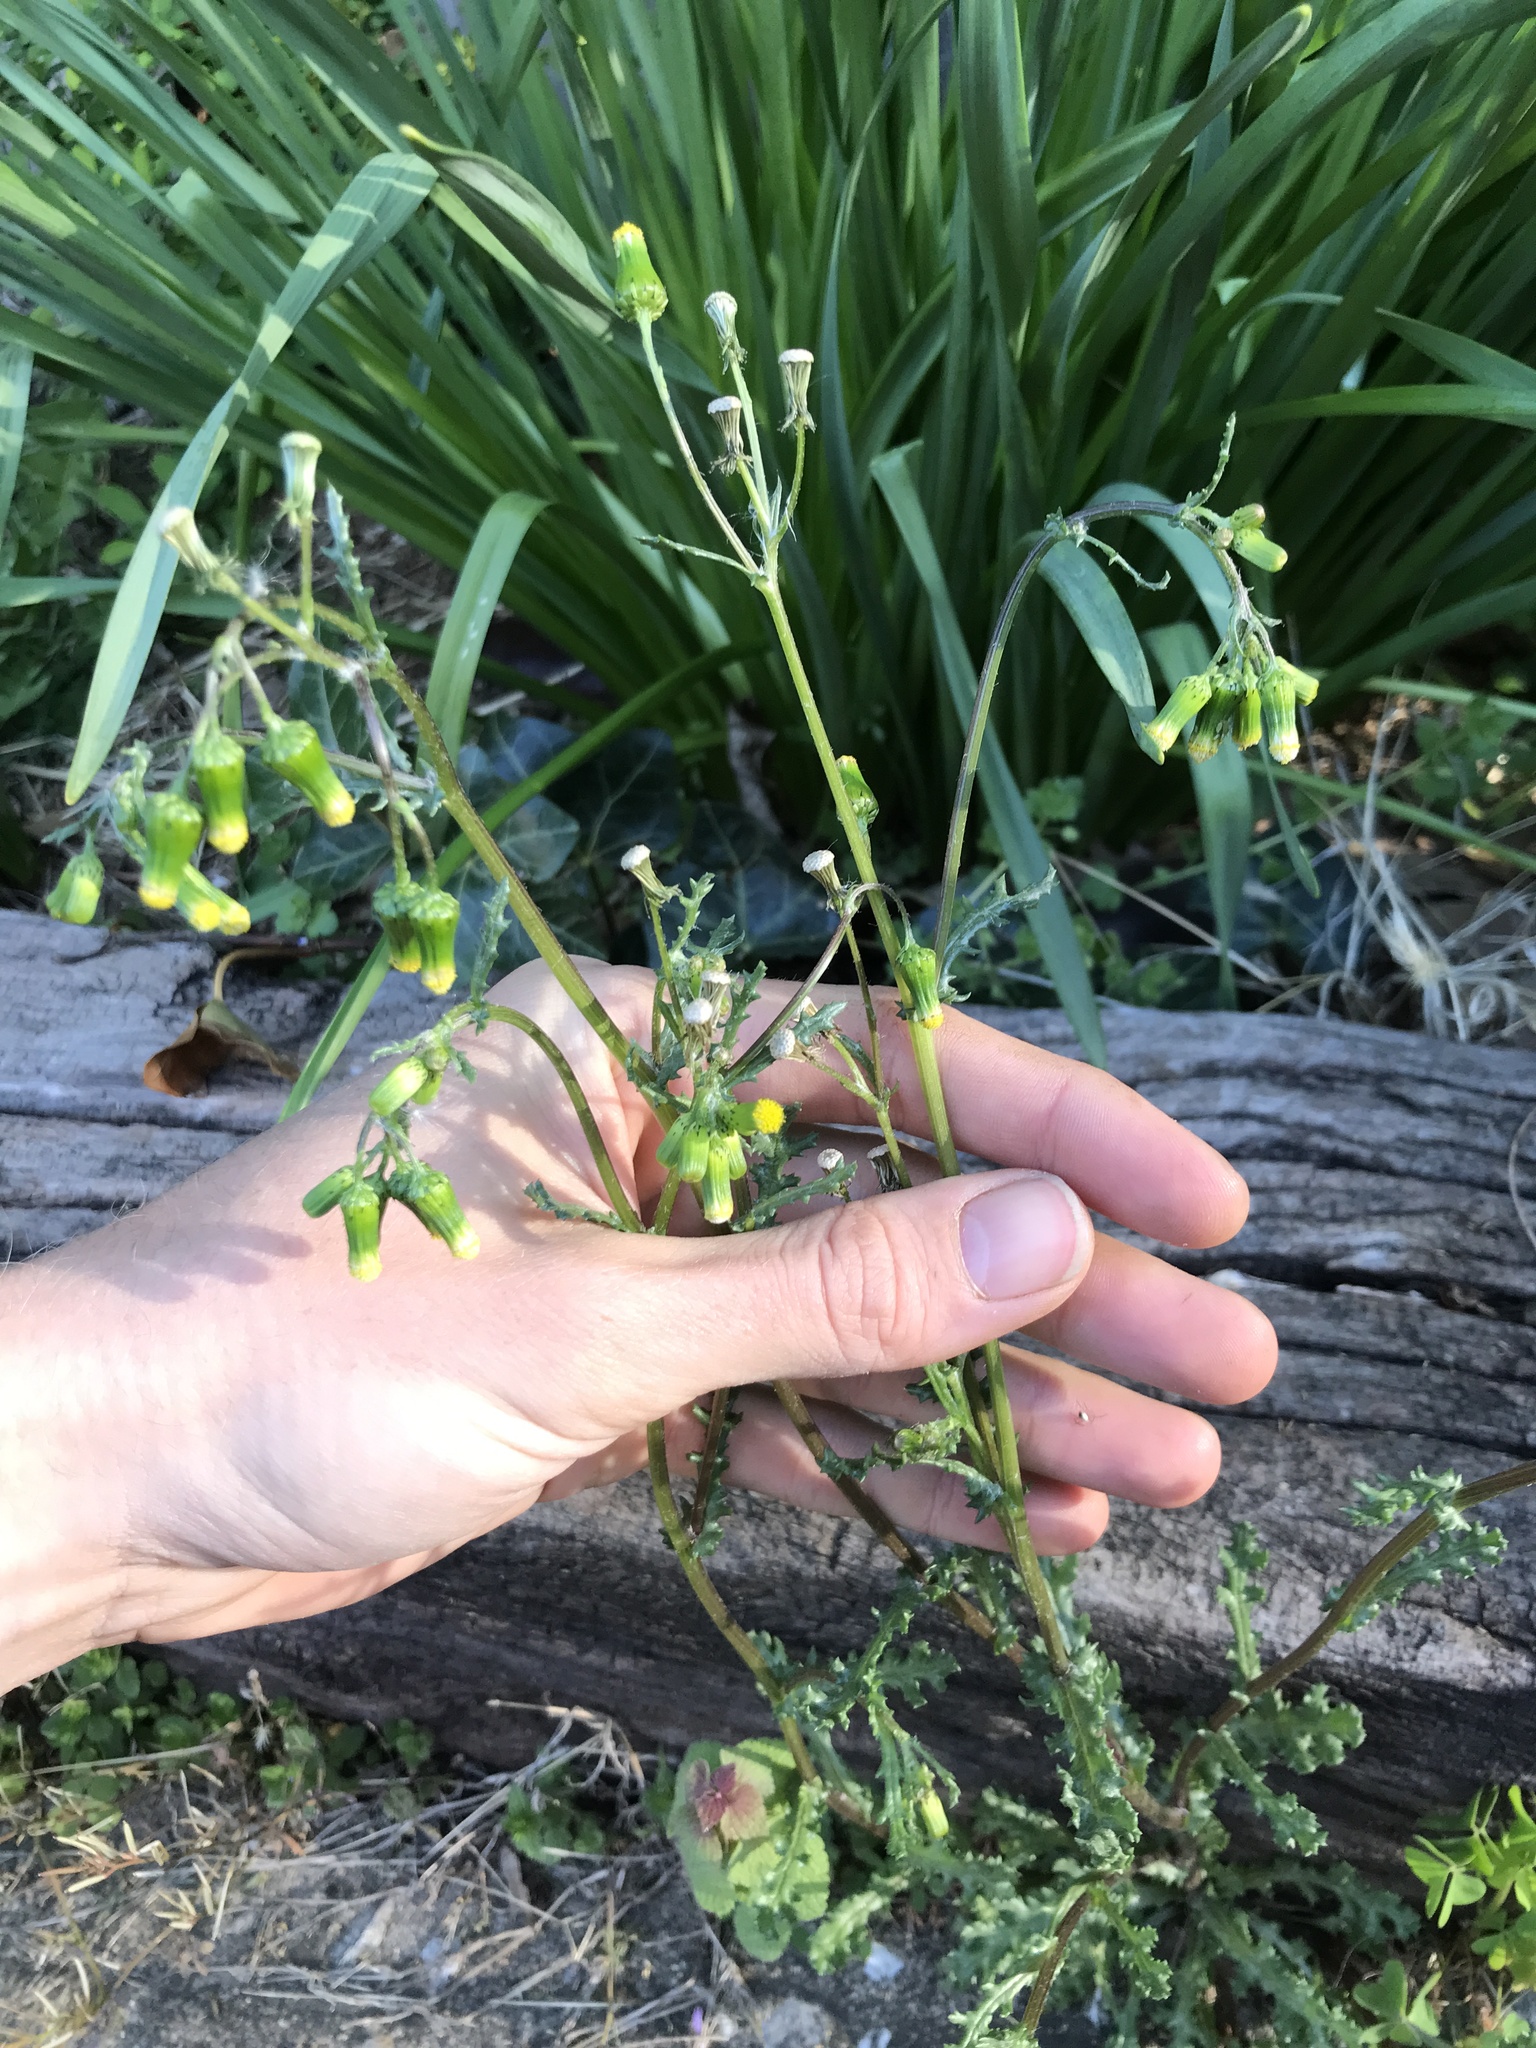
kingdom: Plantae
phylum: Tracheophyta
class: Magnoliopsida
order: Asterales
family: Asteraceae
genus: Senecio
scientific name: Senecio vulgaris
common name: Old-man-in-the-spring
